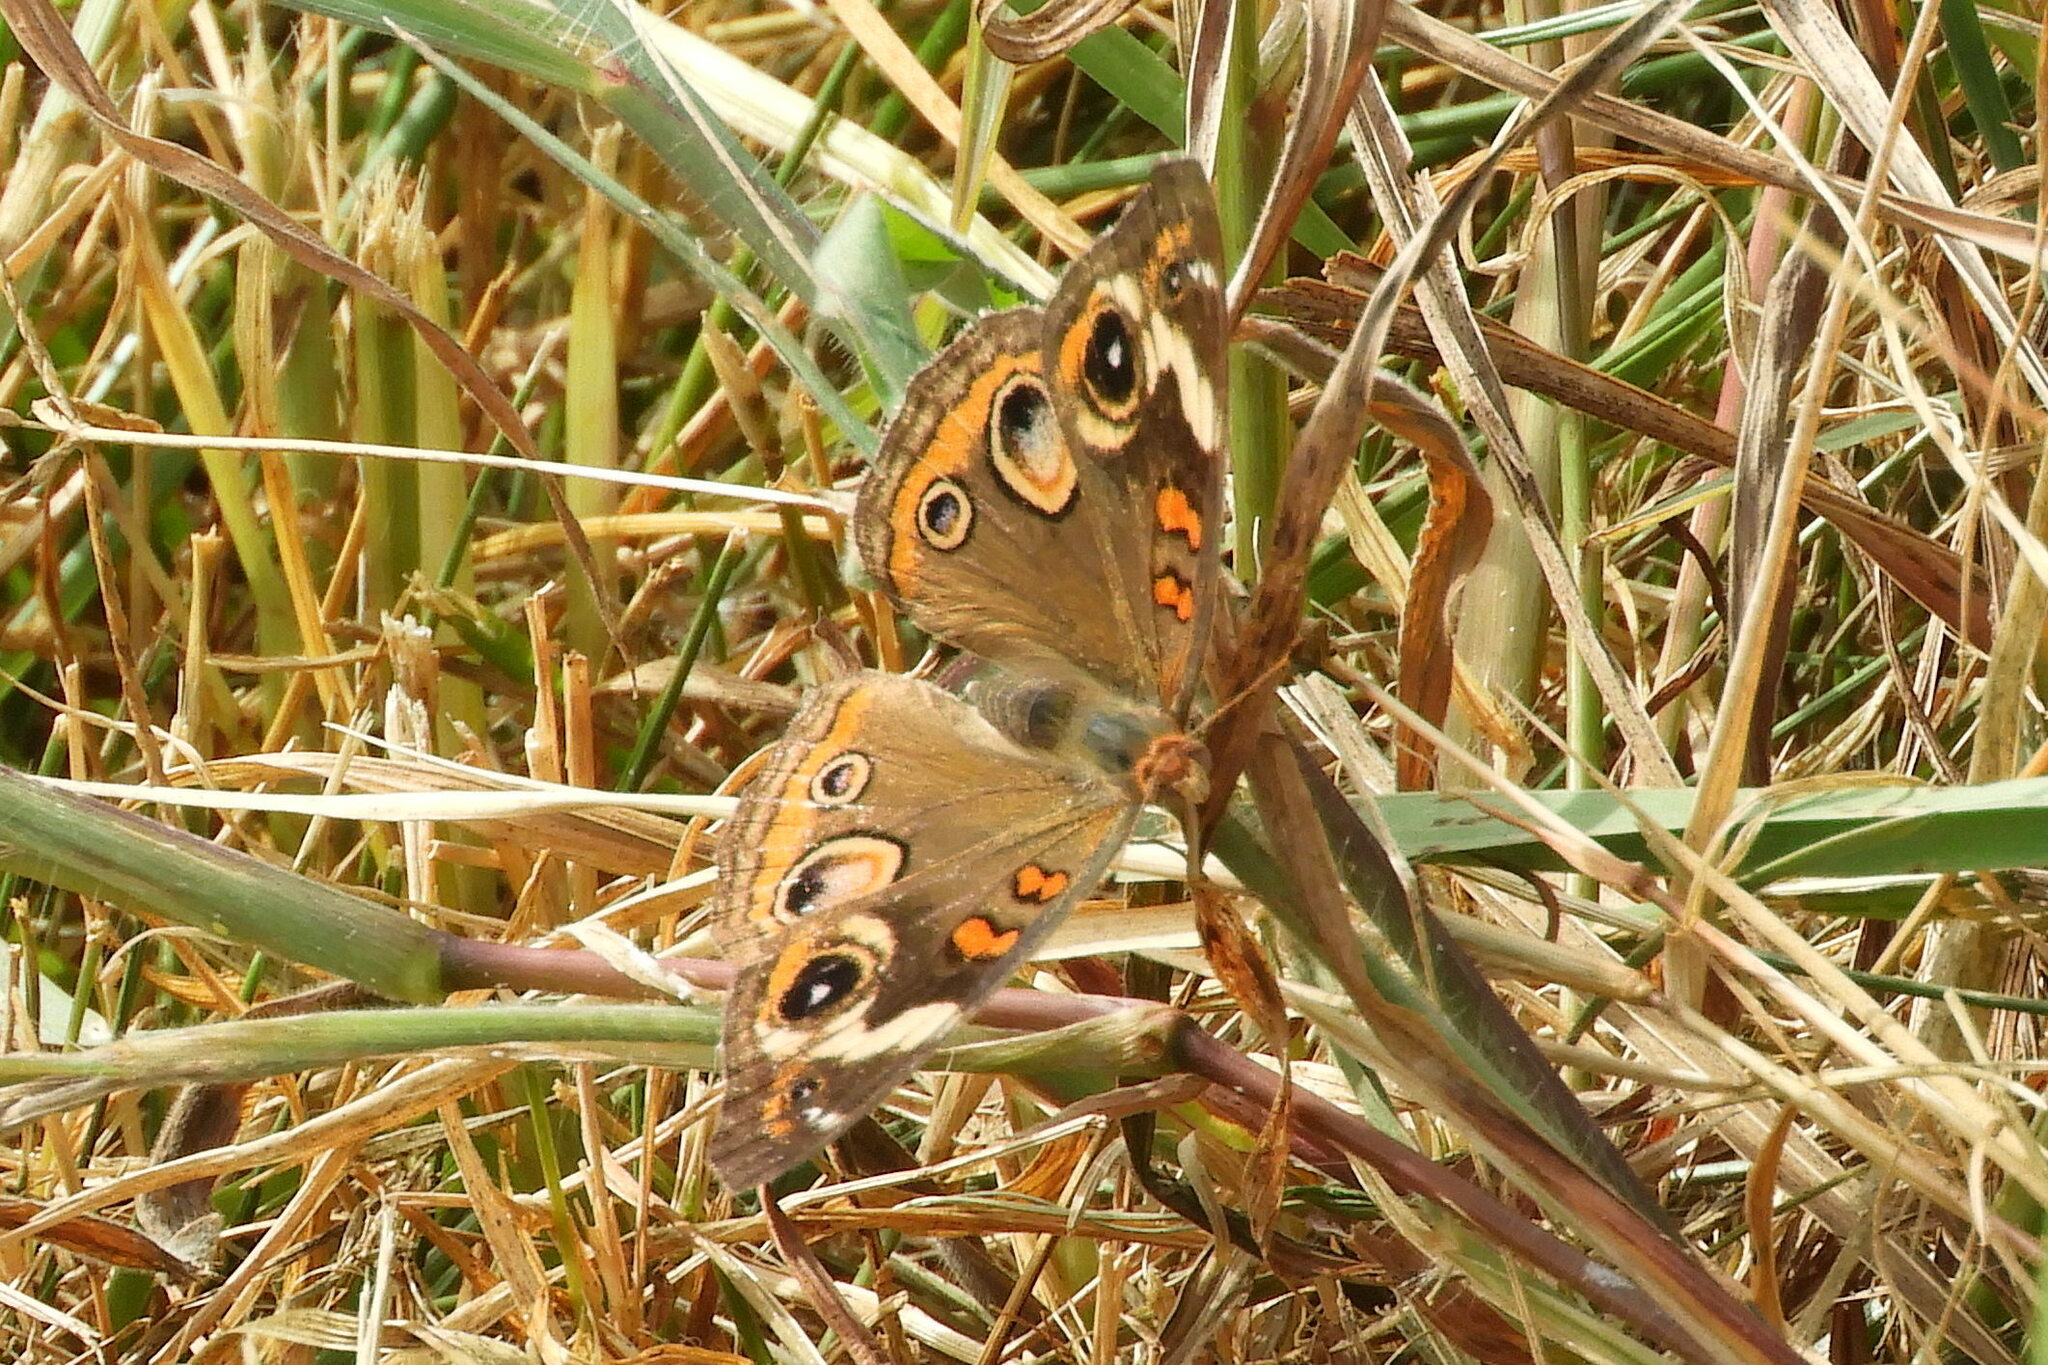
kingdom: Animalia
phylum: Arthropoda
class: Insecta
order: Lepidoptera
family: Nymphalidae
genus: Junonia
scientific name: Junonia coenia
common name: Common buckeye
